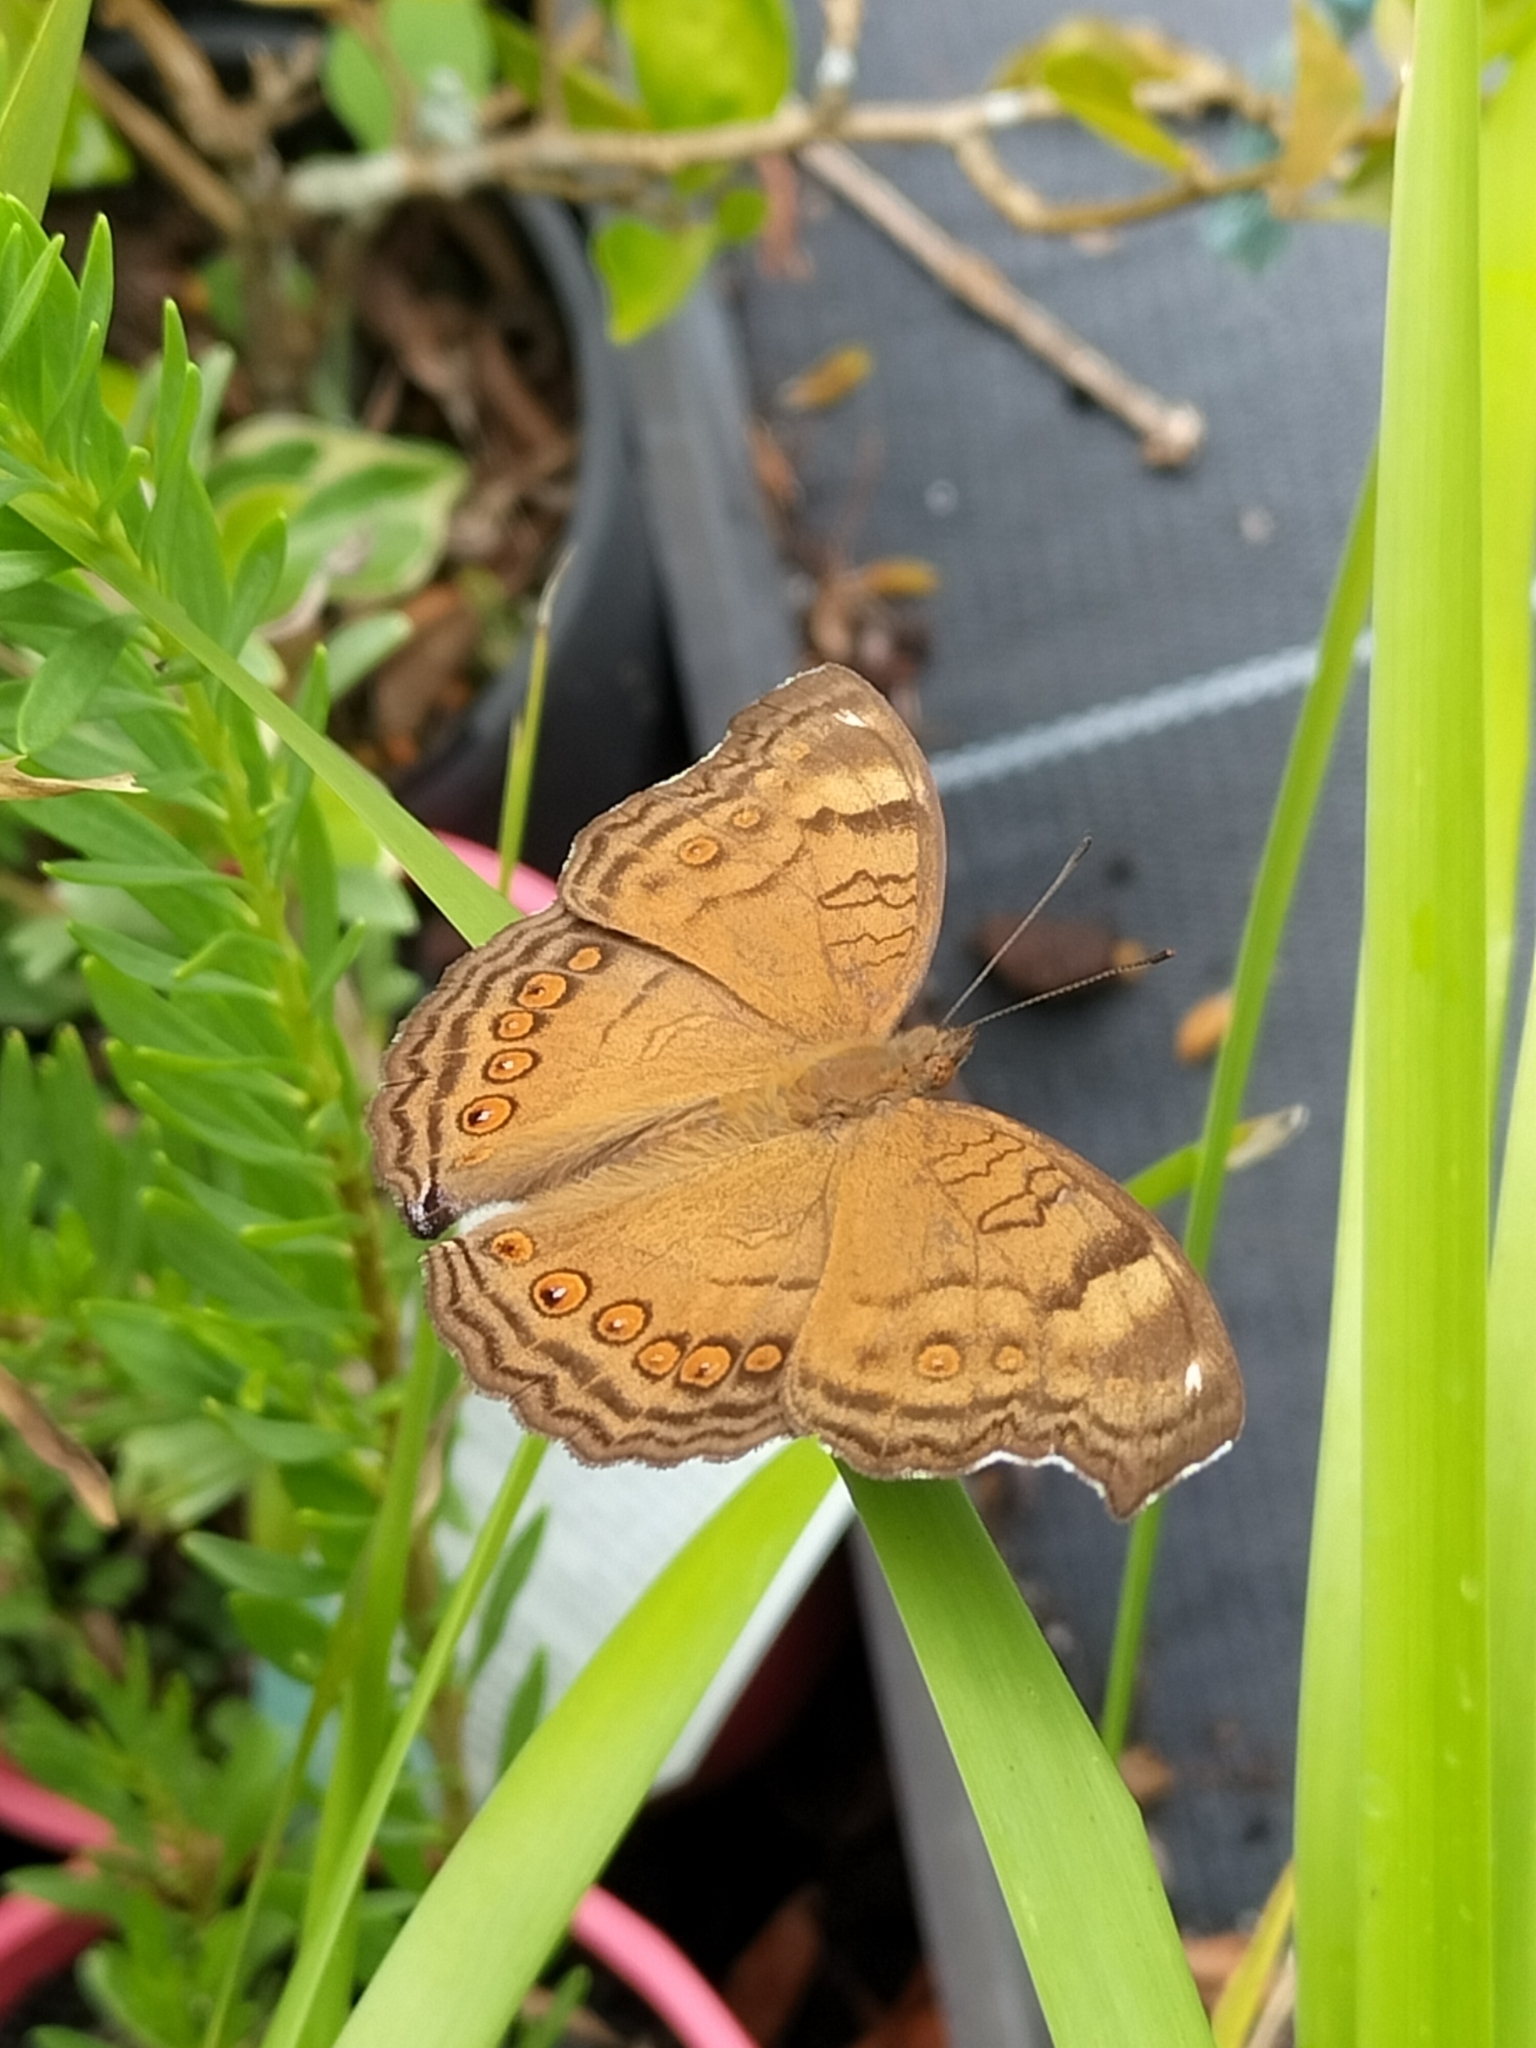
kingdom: Animalia
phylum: Arthropoda
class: Insecta
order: Lepidoptera
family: Nymphalidae
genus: Junonia
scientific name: Junonia hedonia
